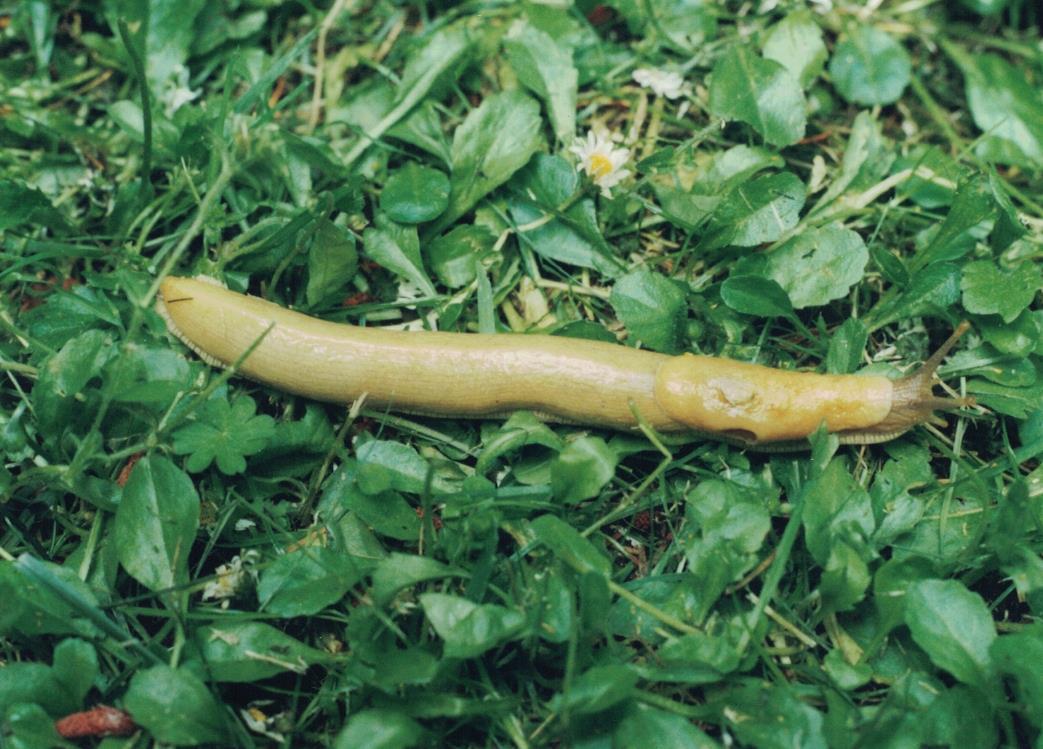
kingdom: Animalia
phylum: Mollusca
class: Gastropoda
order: Stylommatophora
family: Ariolimacidae
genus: Ariolimax
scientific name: Ariolimax columbianus
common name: Pacific banana slug
